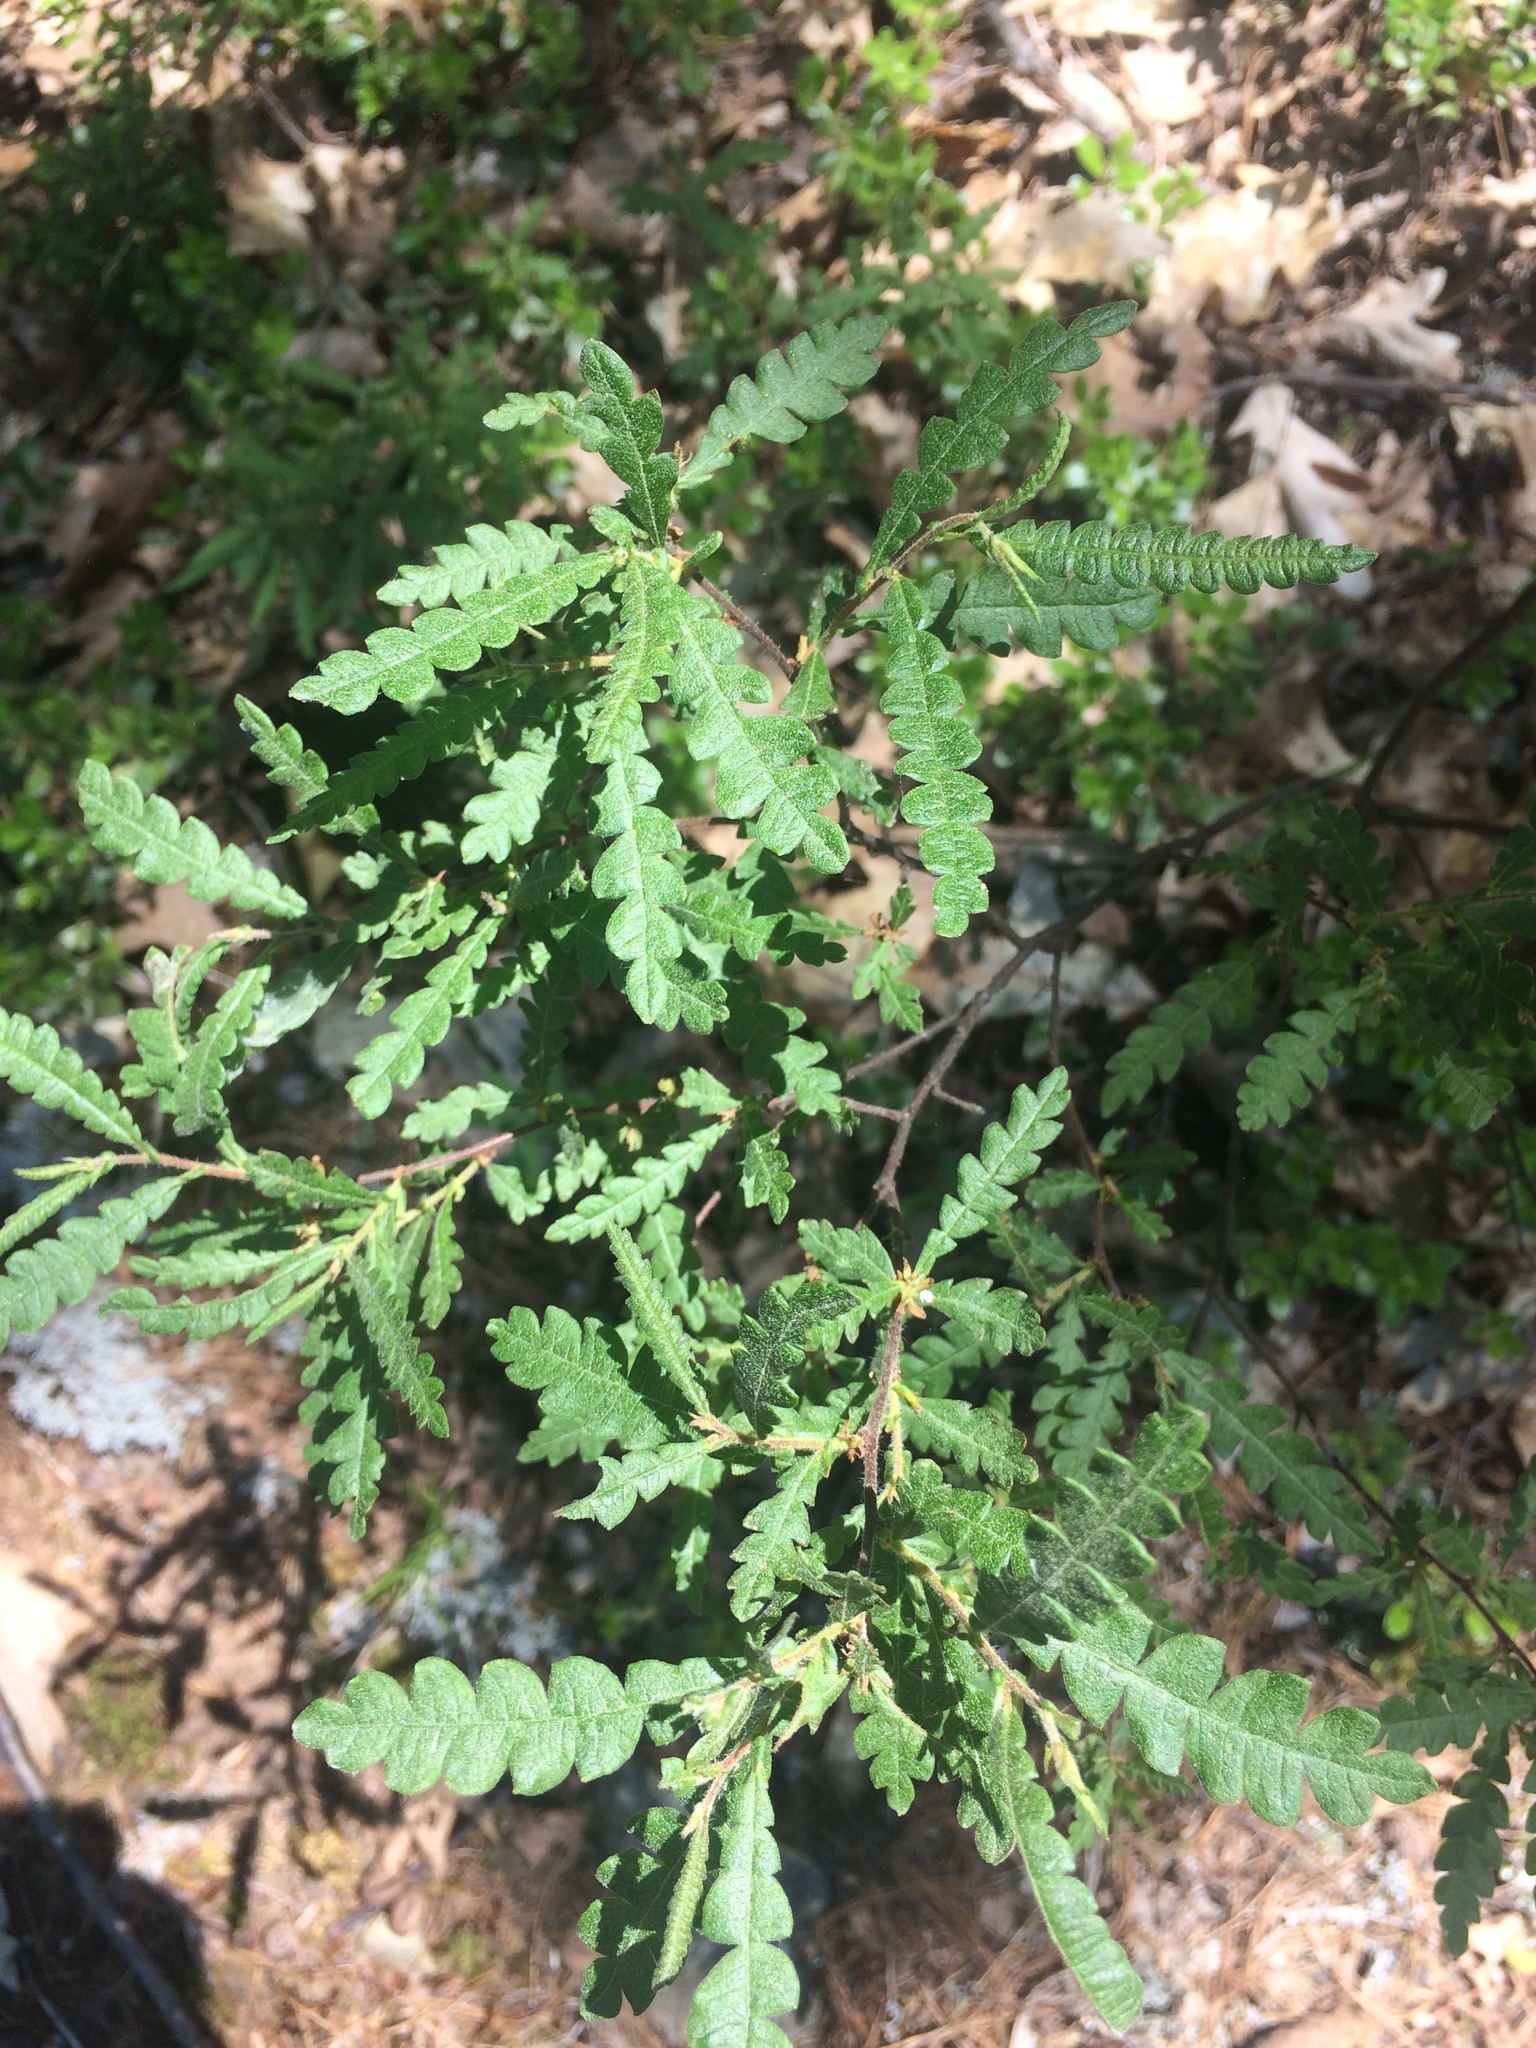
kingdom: Plantae
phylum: Tracheophyta
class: Magnoliopsida
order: Fagales
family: Myricaceae
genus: Comptonia
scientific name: Comptonia peregrina
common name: Sweet-fern
